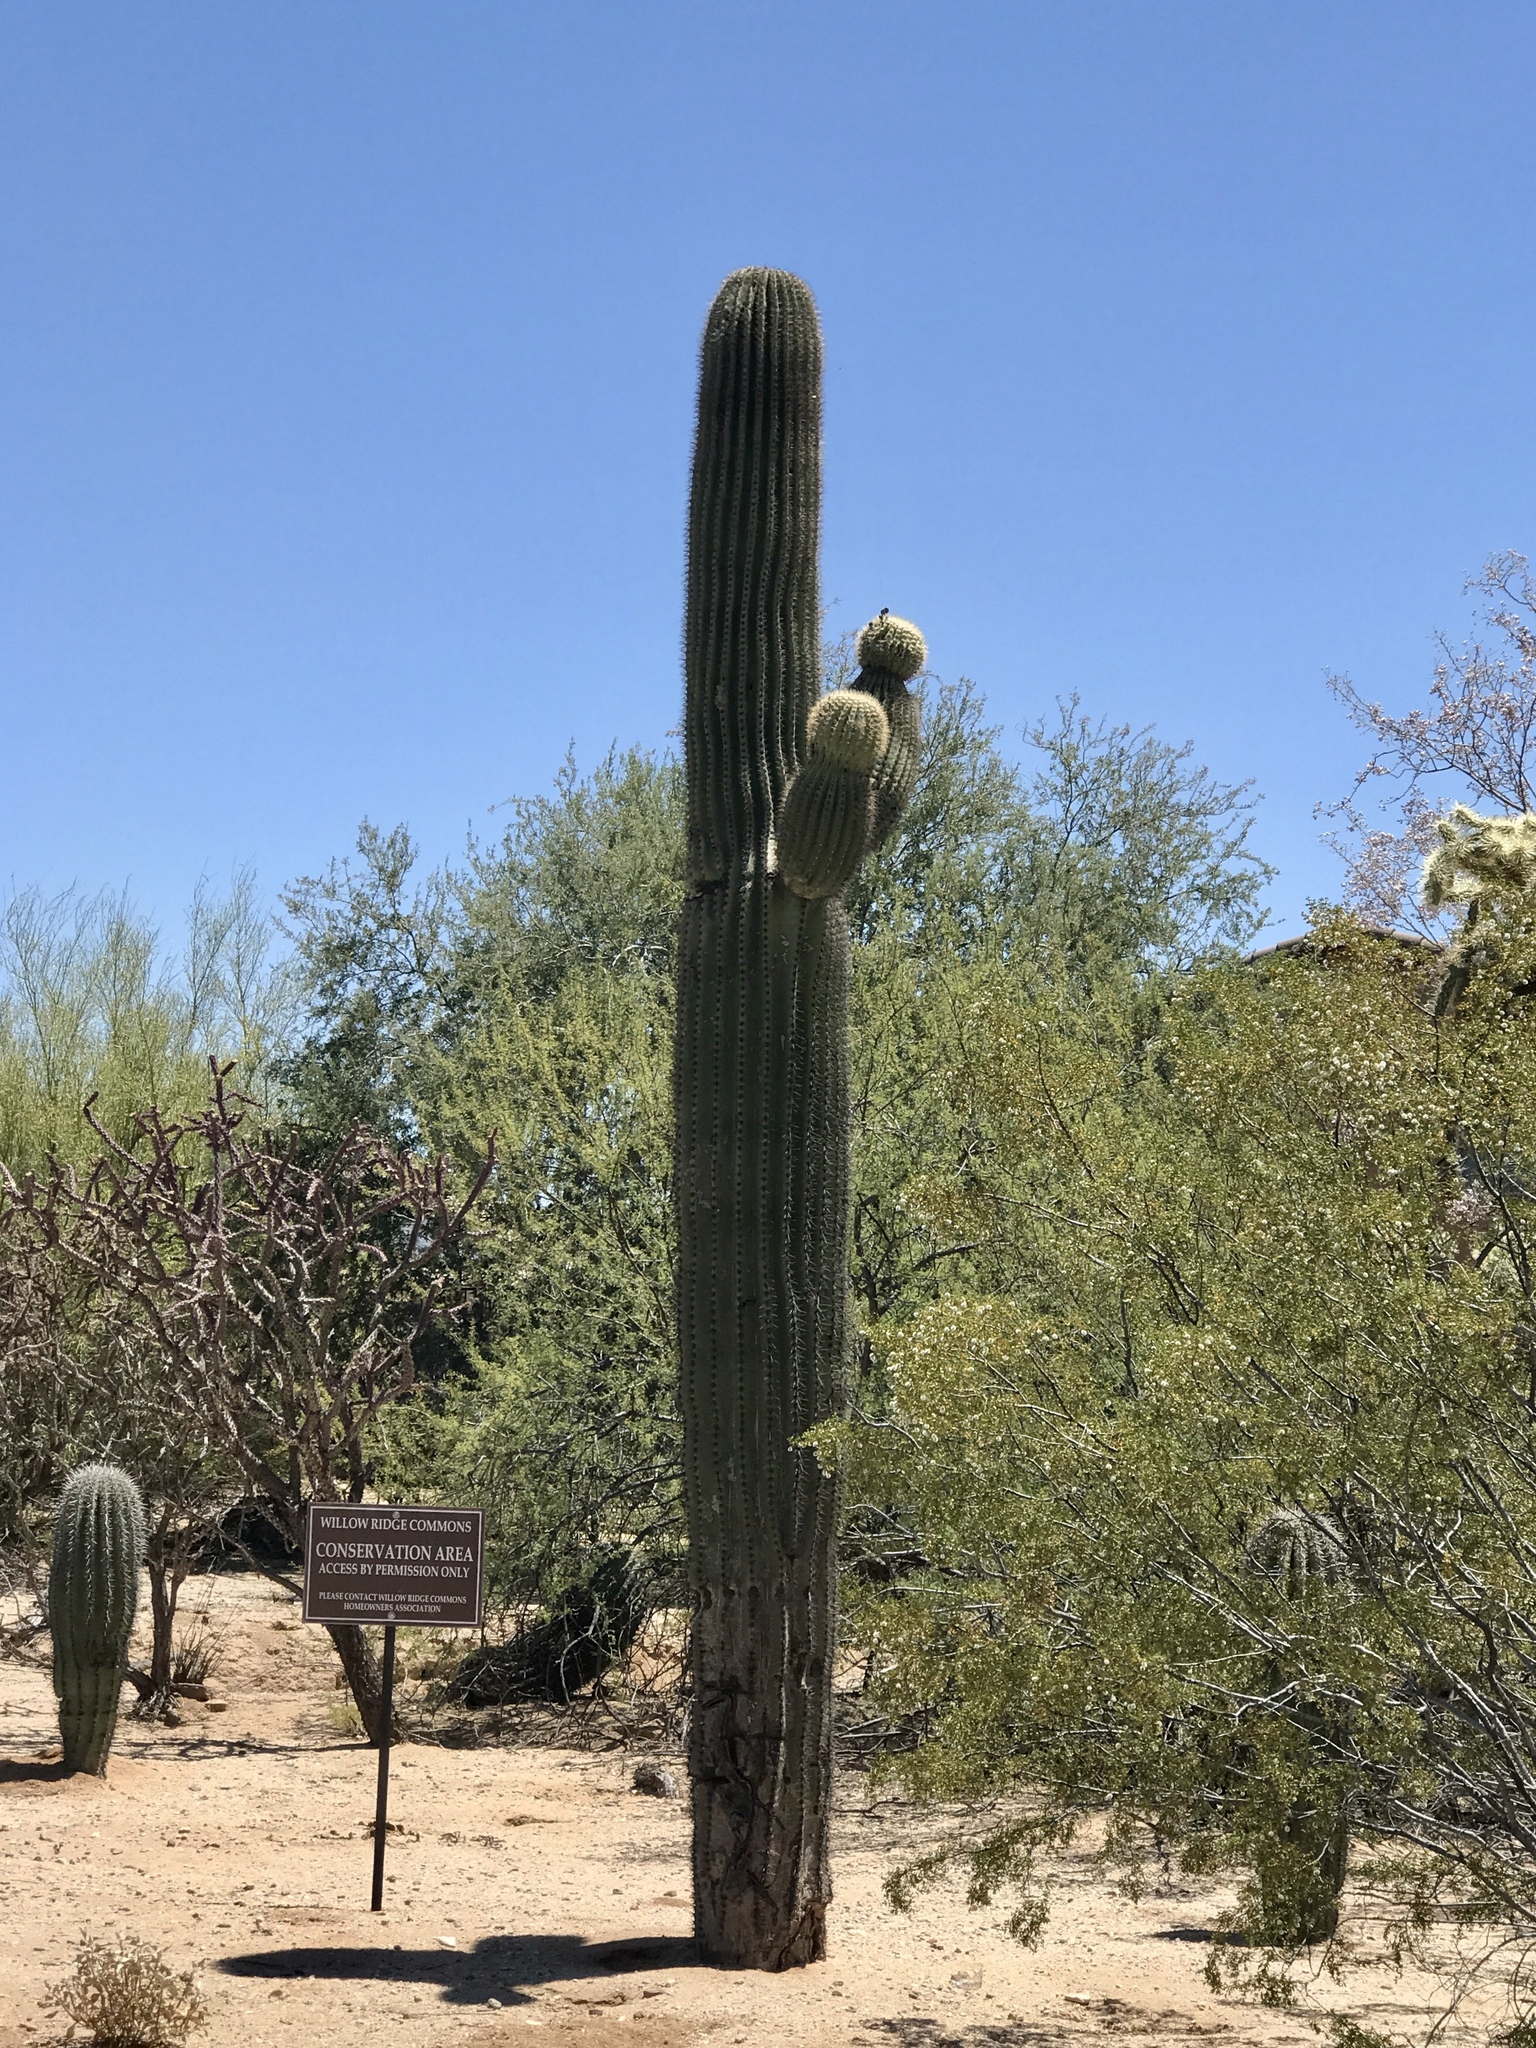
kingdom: Plantae
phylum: Tracheophyta
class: Magnoliopsida
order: Caryophyllales
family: Cactaceae
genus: Carnegiea
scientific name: Carnegiea gigantea
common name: Saguaro
